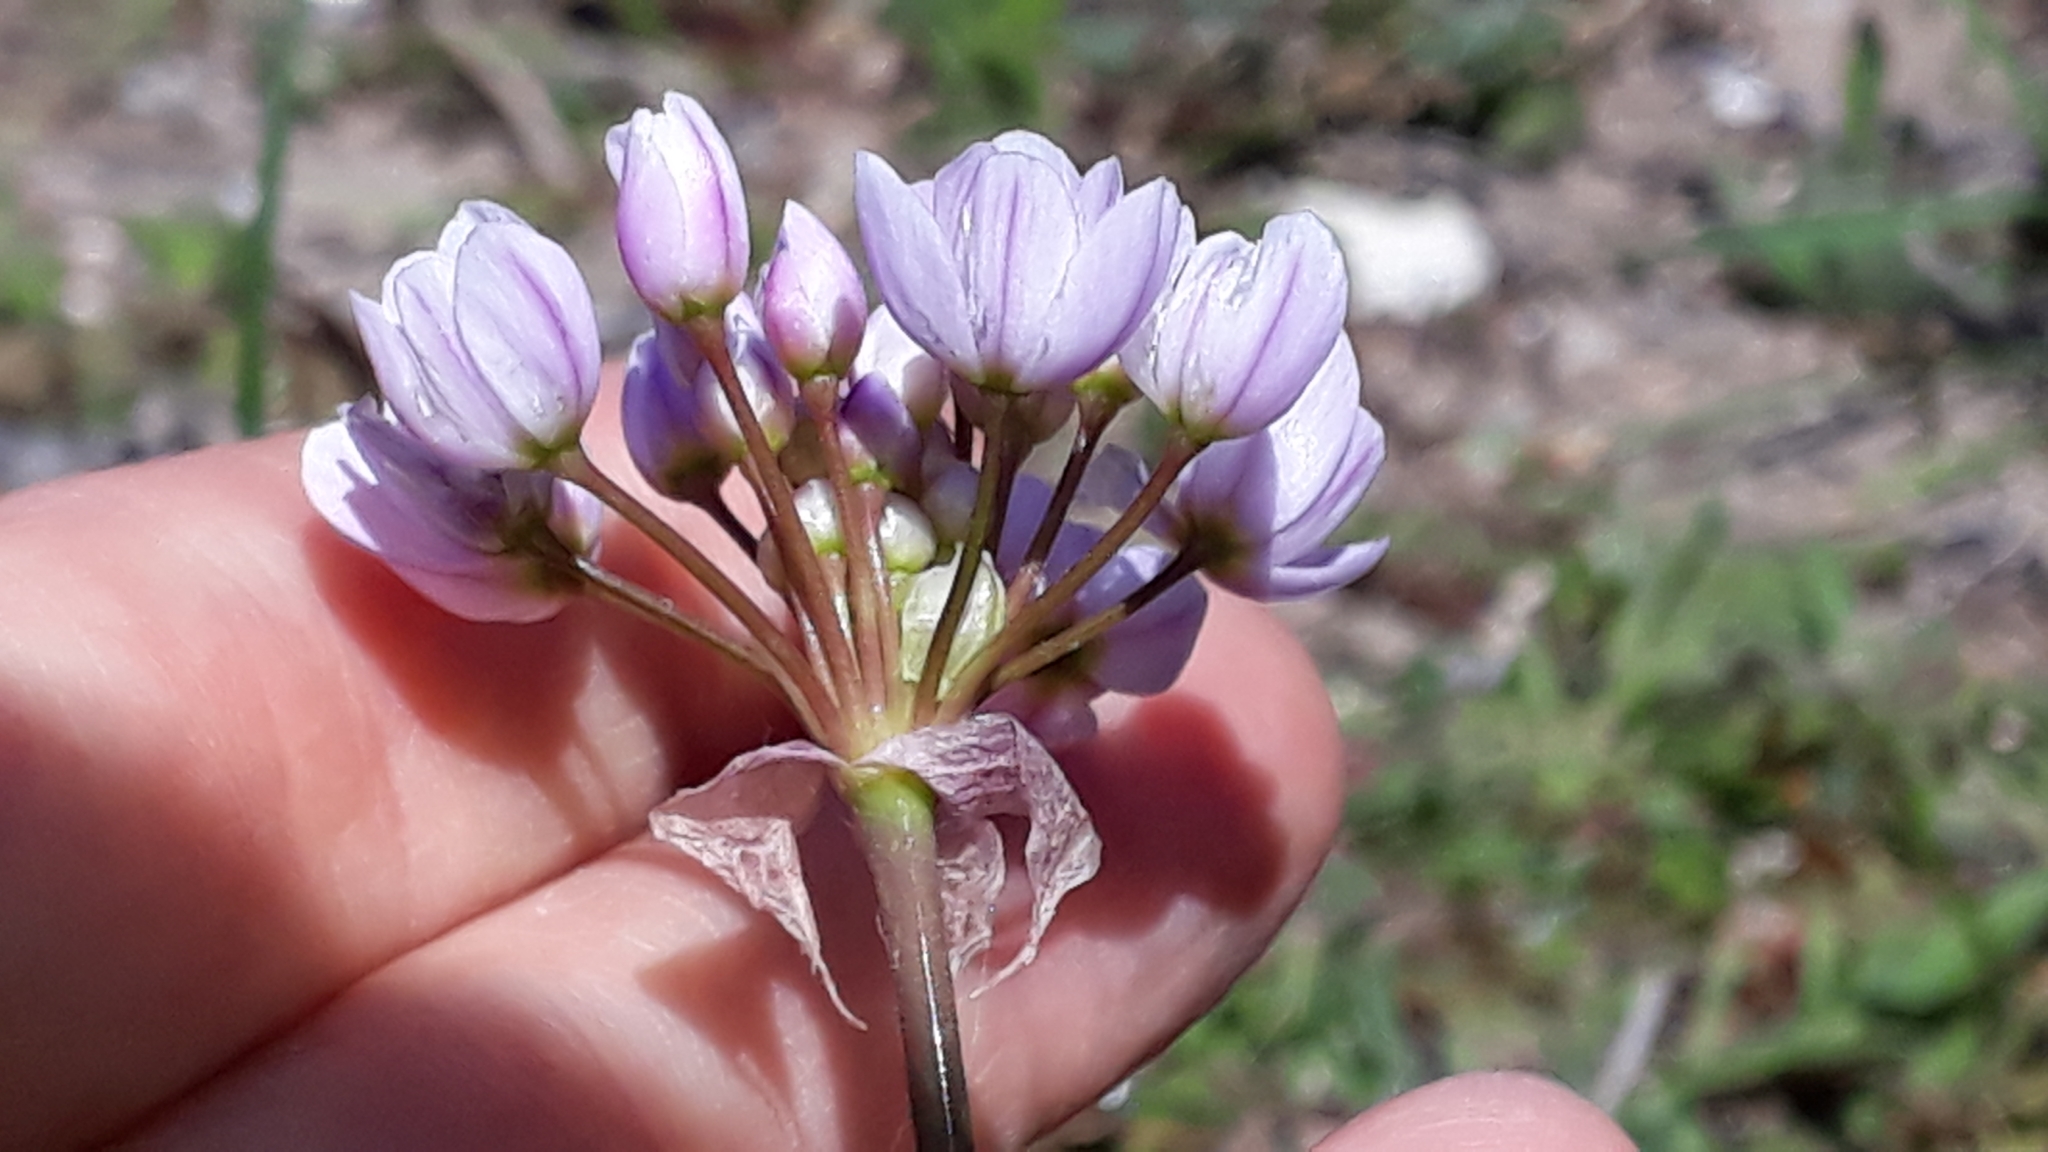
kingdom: Plantae
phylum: Tracheophyta
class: Liliopsida
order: Asparagales
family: Amaryllidaceae
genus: Allium
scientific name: Allium roseum
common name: Rosy garlic
